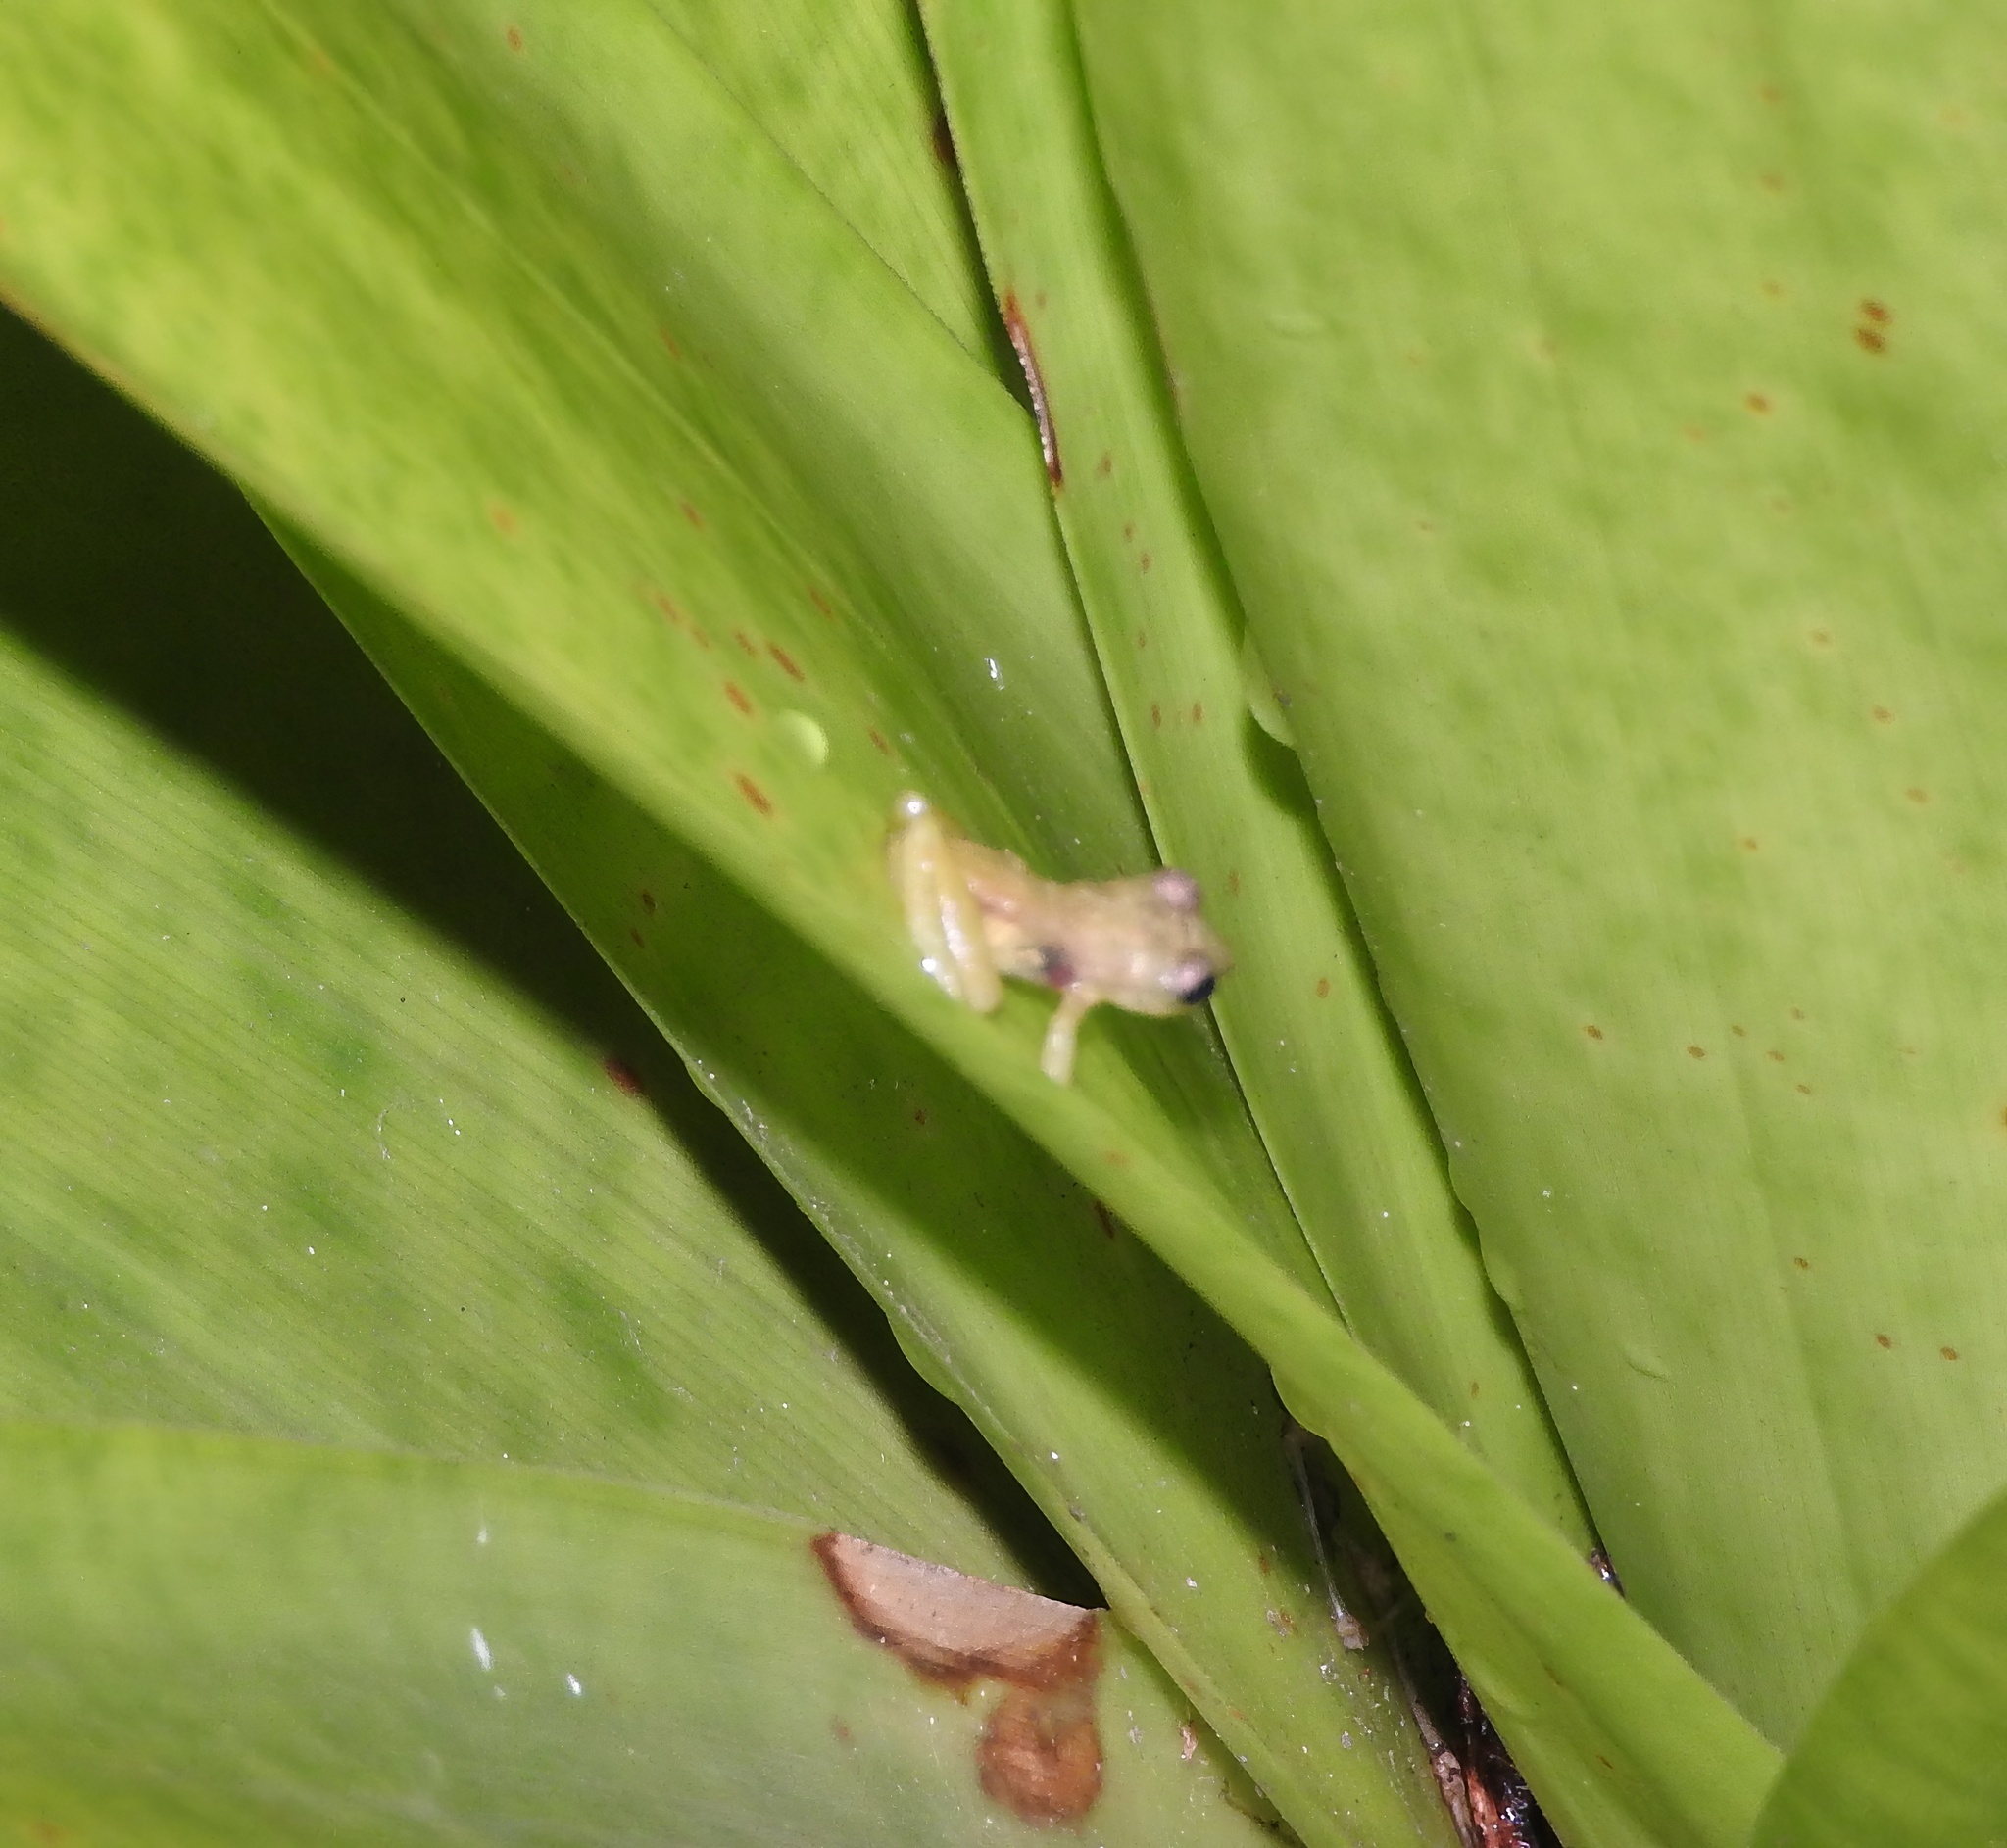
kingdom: Animalia
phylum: Chordata
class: Amphibia
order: Anura
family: Craugastoridae
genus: Tachiramantis
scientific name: Tachiramantis
